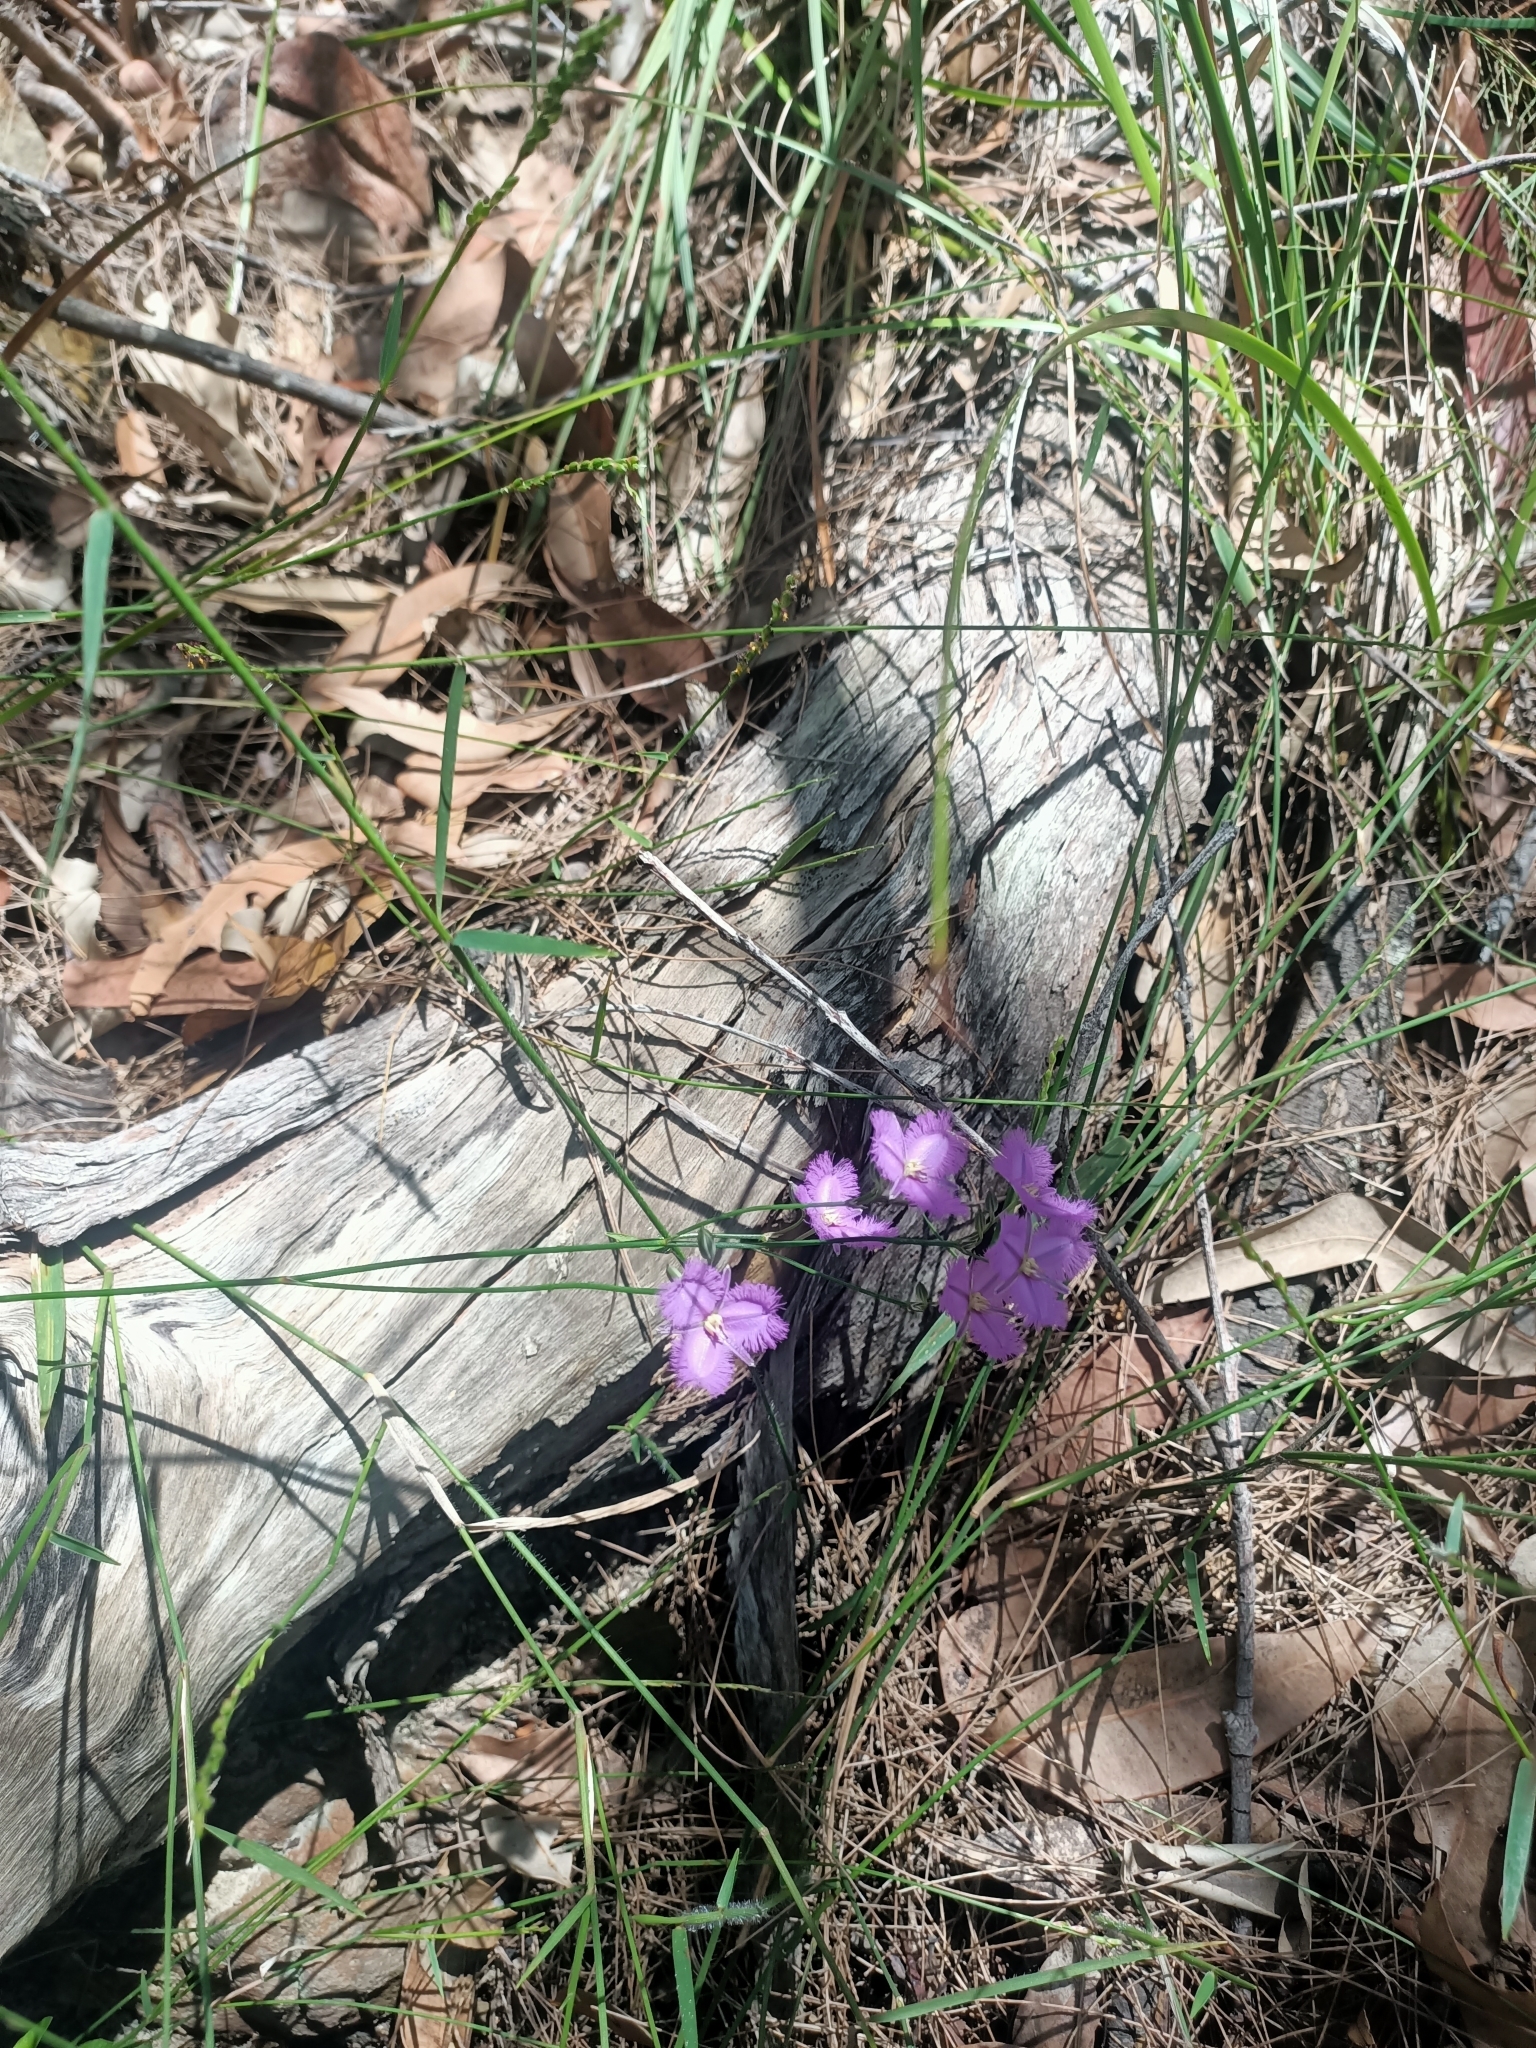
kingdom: Plantae
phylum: Tracheophyta
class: Liliopsida
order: Asparagales
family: Asparagaceae
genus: Thysanotus
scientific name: Thysanotus tuberosus
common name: Common fringed-lily
